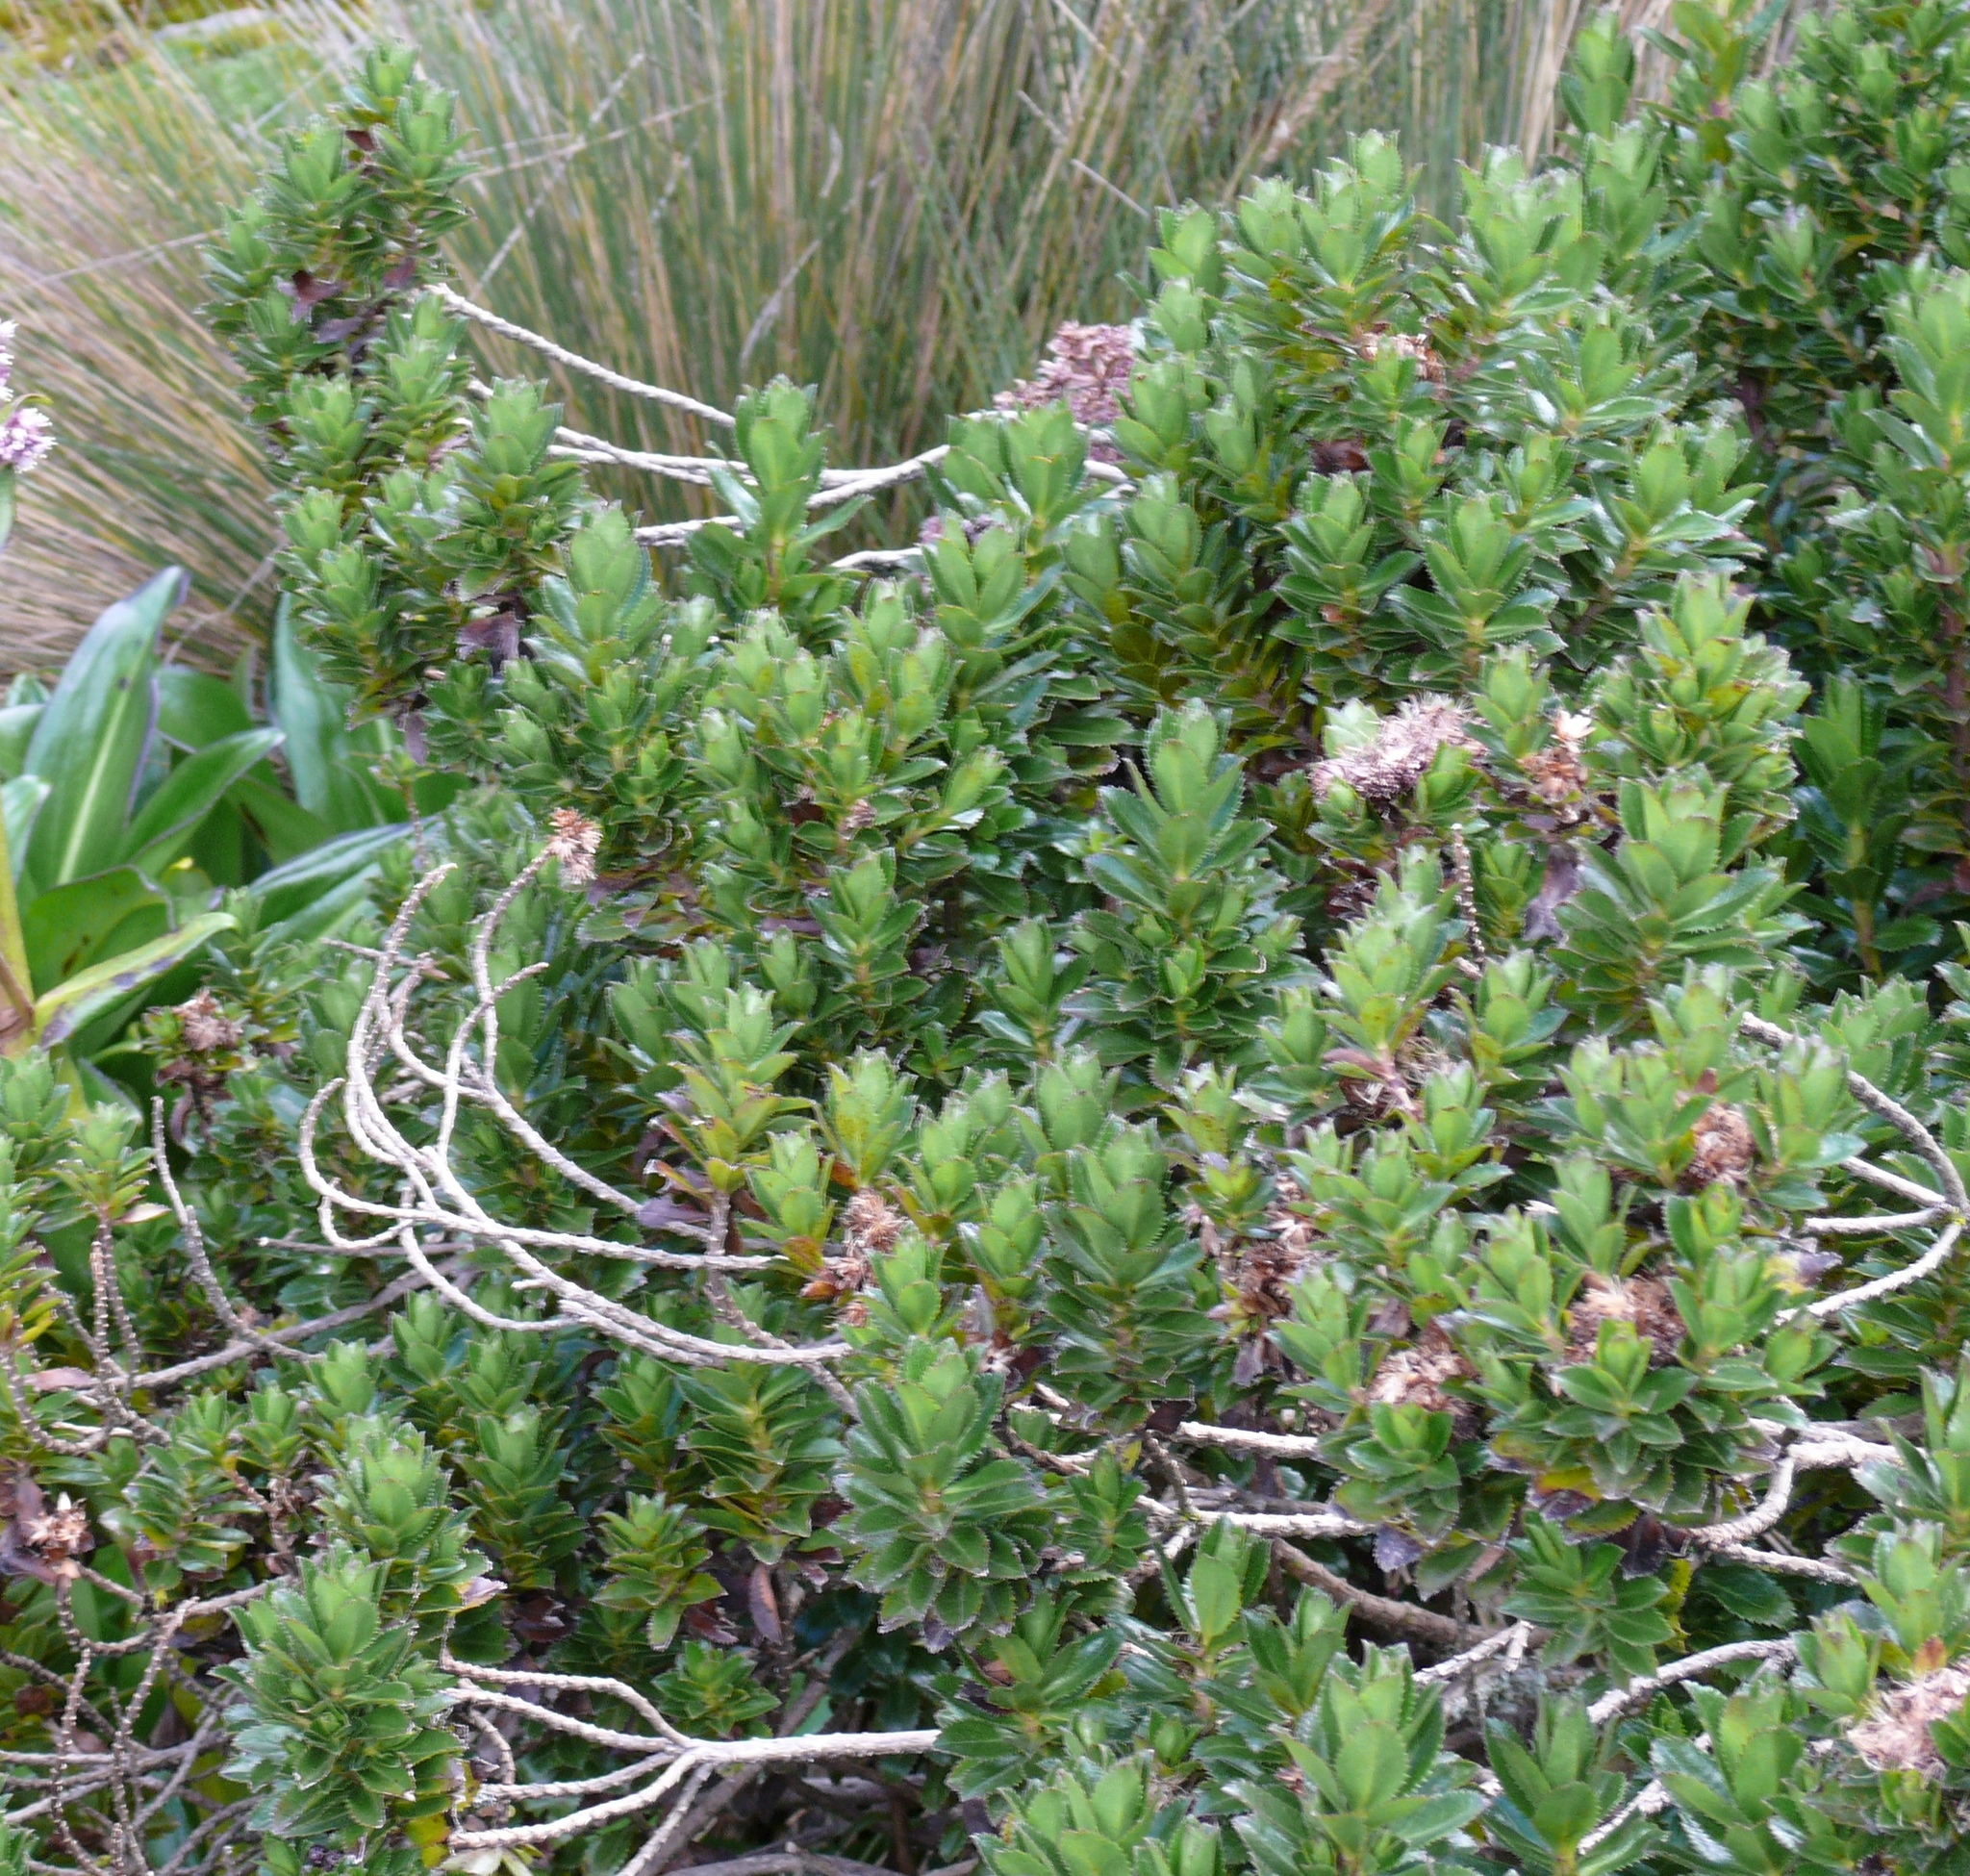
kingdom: Plantae
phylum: Tracheophyta
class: Magnoliopsida
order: Asterales
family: Asteraceae
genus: Baccharis
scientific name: Baccharis arbutifolia
